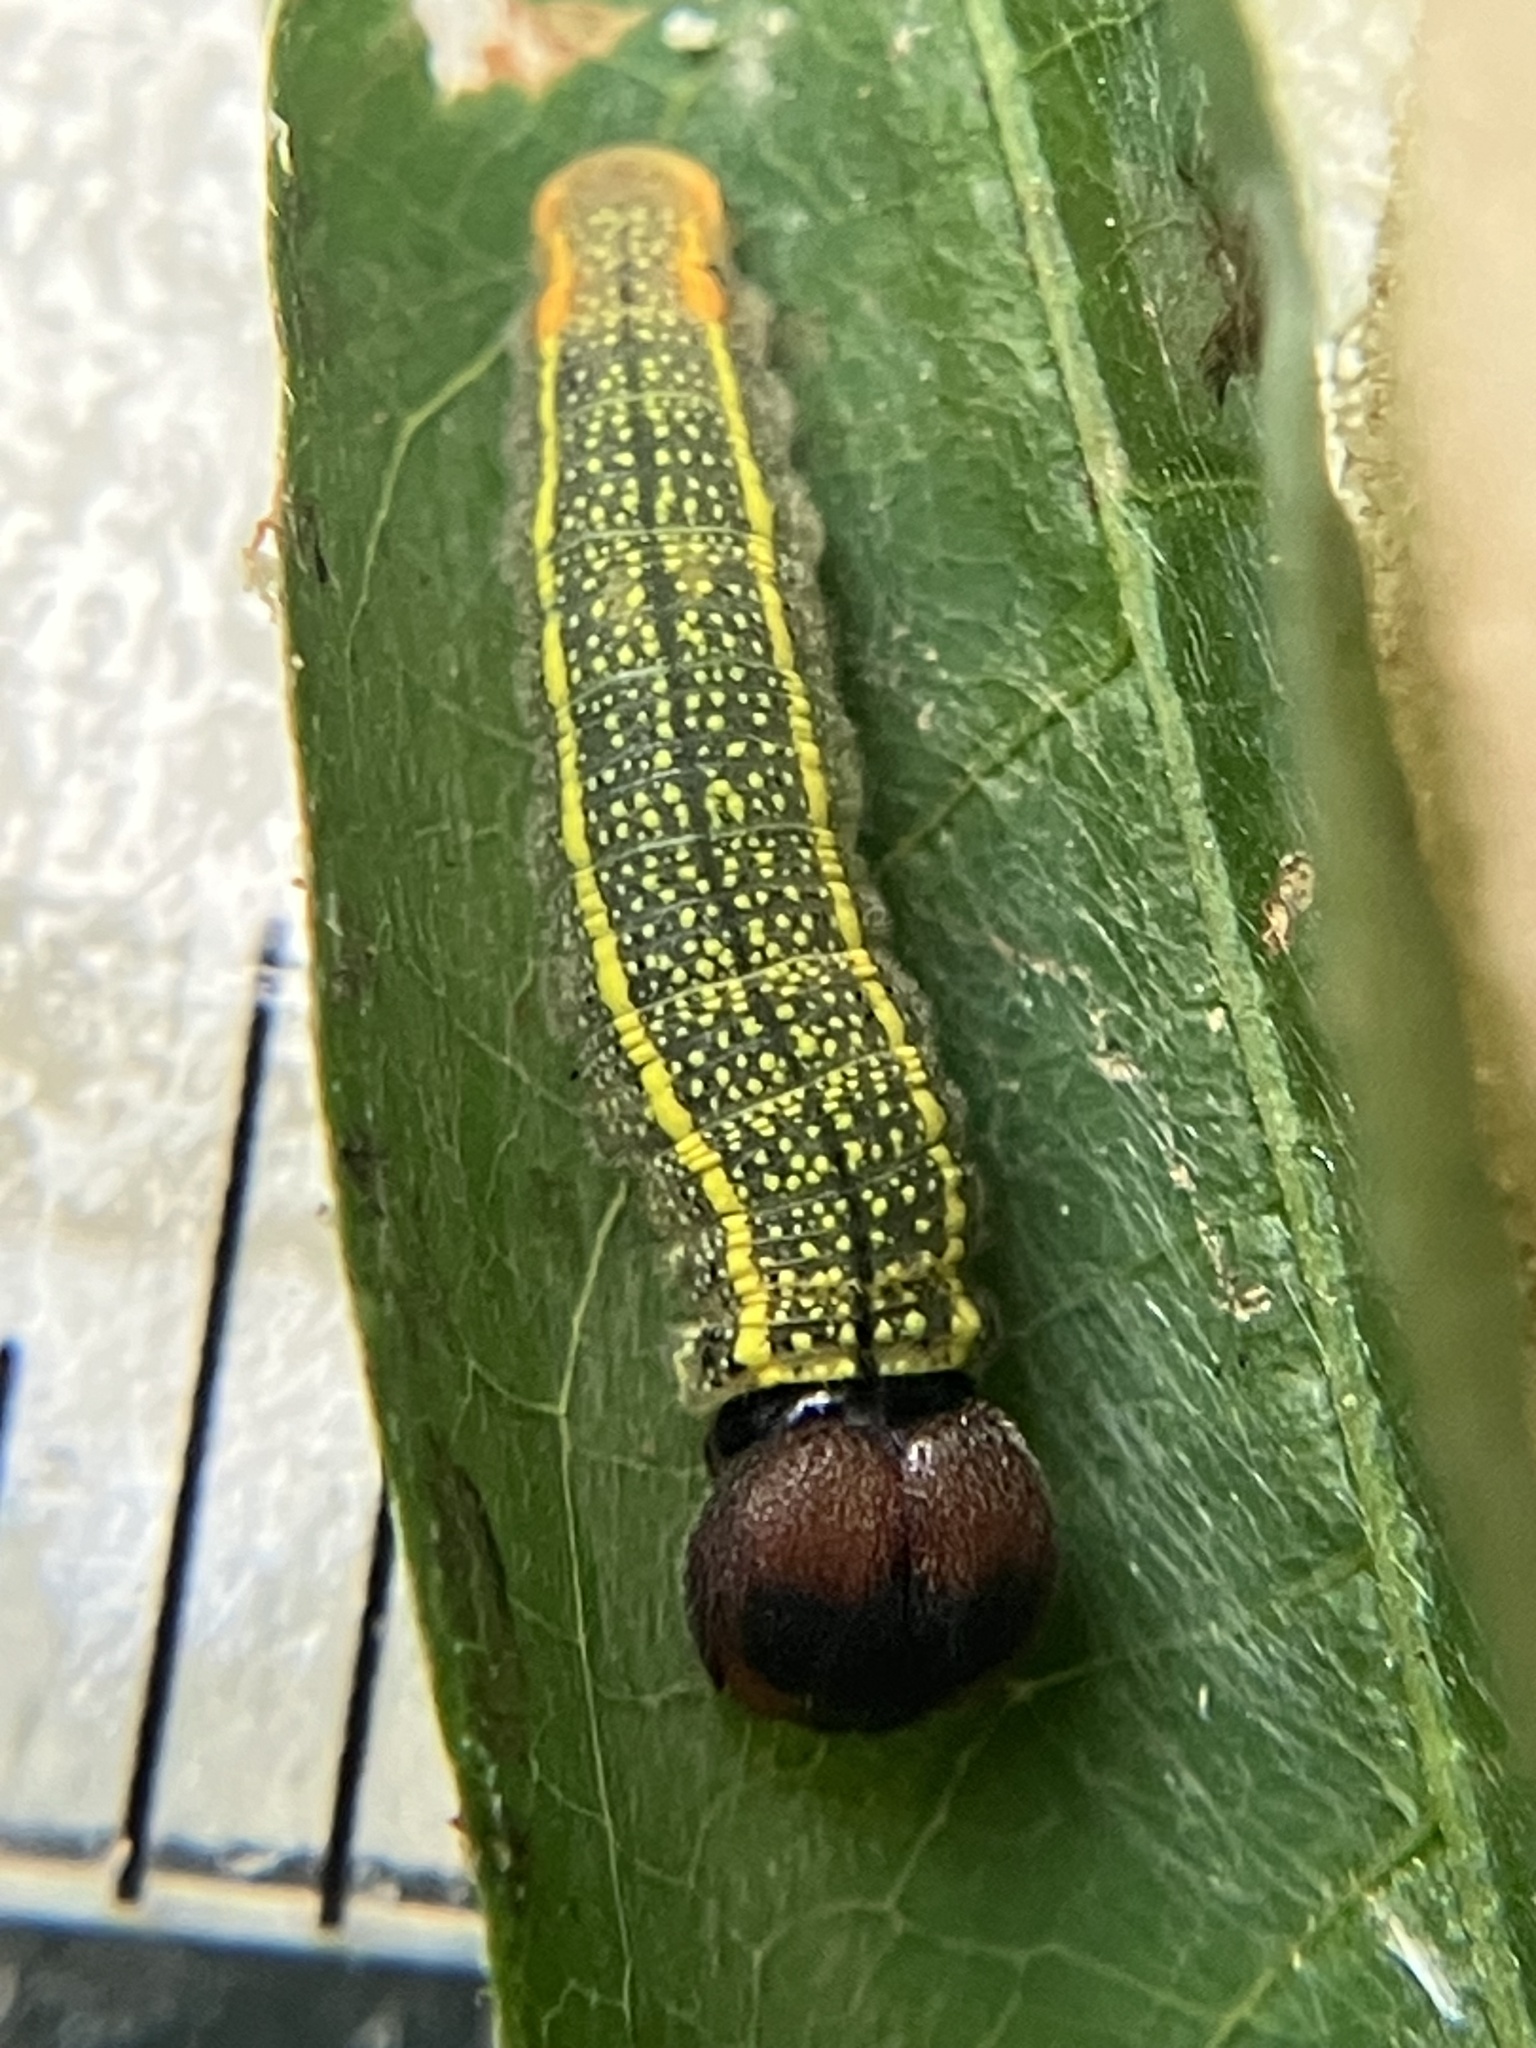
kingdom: Animalia
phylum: Arthropoda
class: Insecta
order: Lepidoptera
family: Hesperiidae
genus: Urbanus
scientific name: Urbanus proteus
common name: Long-tailed skipper
